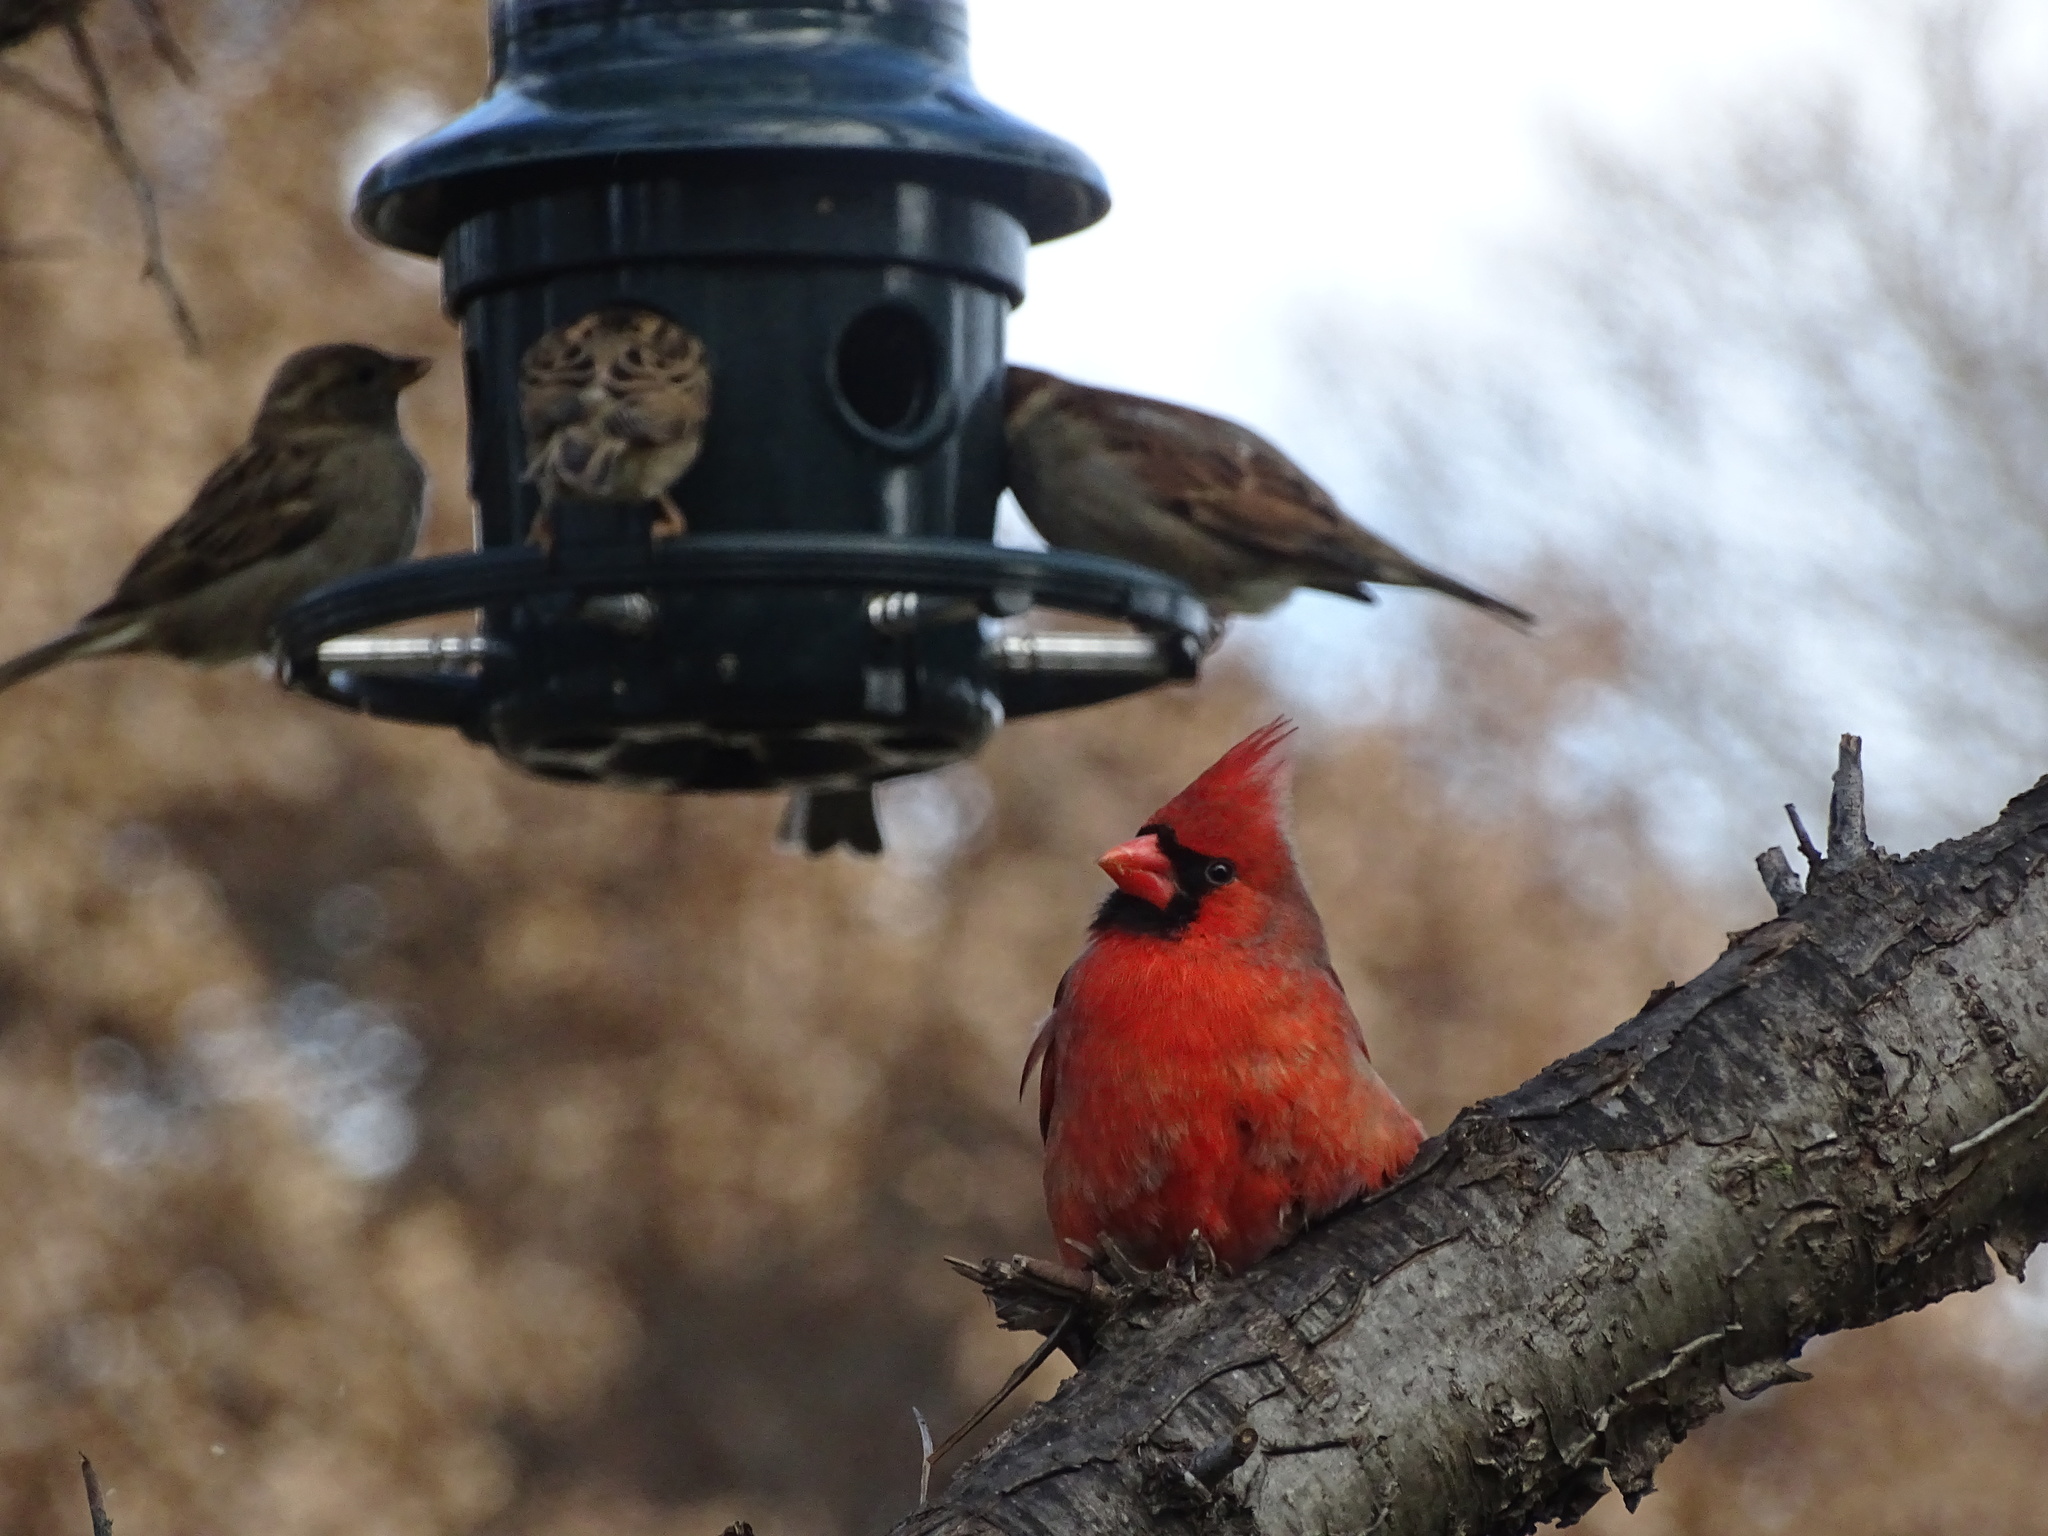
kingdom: Animalia
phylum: Chordata
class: Aves
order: Passeriformes
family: Cardinalidae
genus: Cardinalis
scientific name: Cardinalis cardinalis
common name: Northern cardinal
